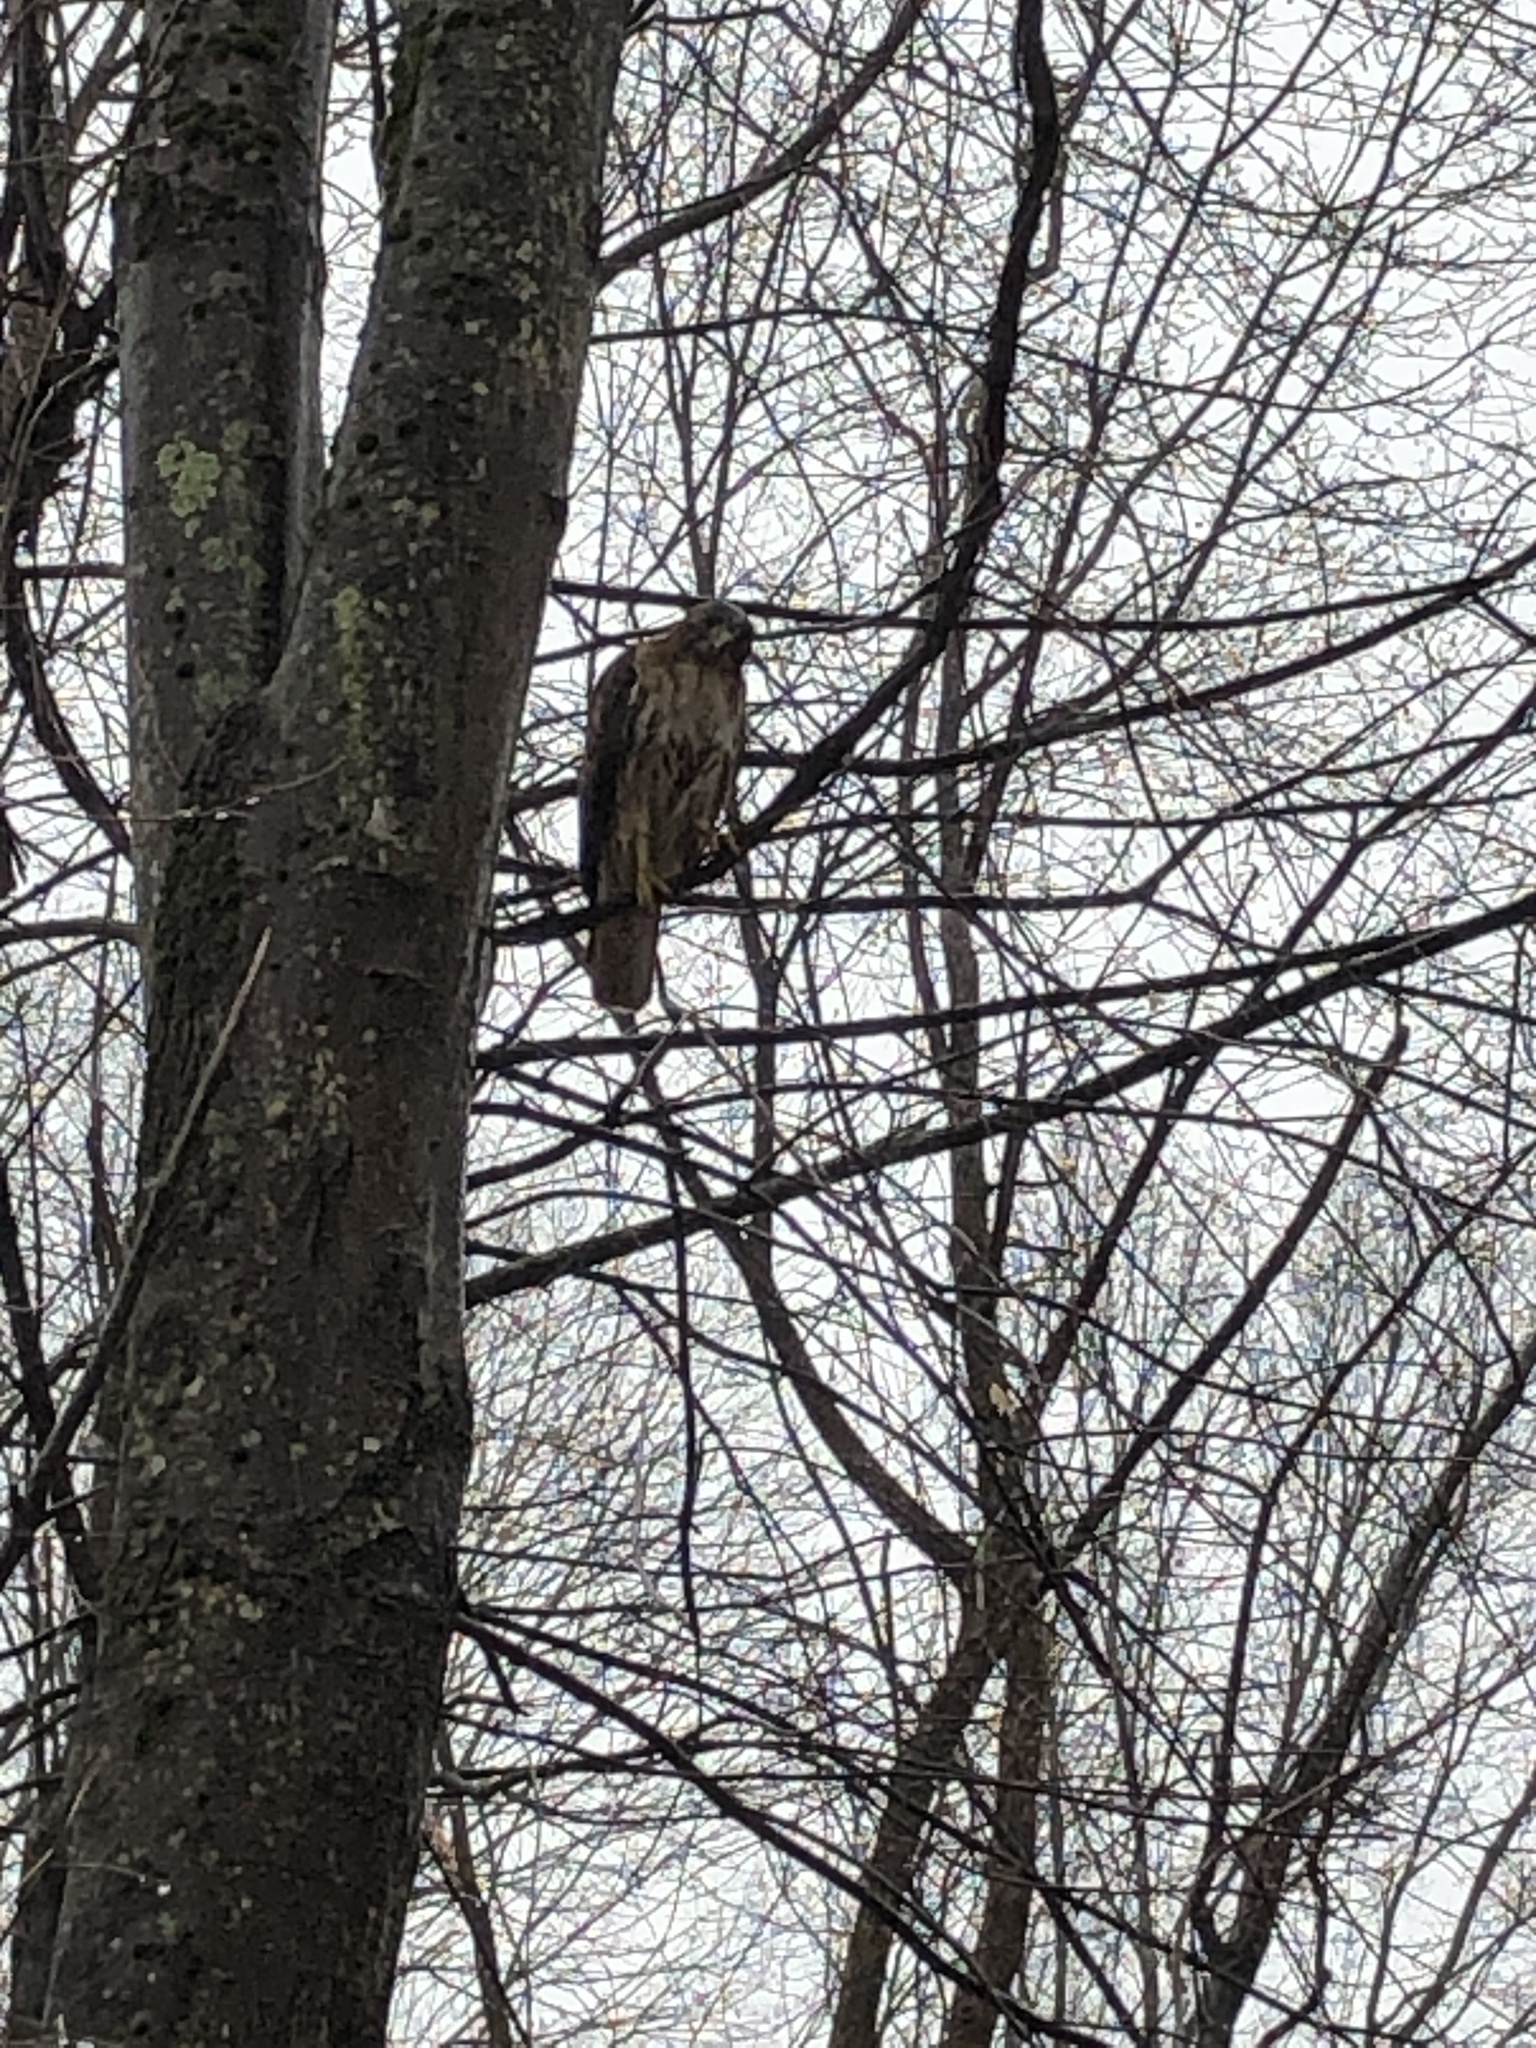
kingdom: Animalia
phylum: Chordata
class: Aves
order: Accipitriformes
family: Accipitridae
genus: Buteo
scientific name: Buteo jamaicensis
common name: Red-tailed hawk
